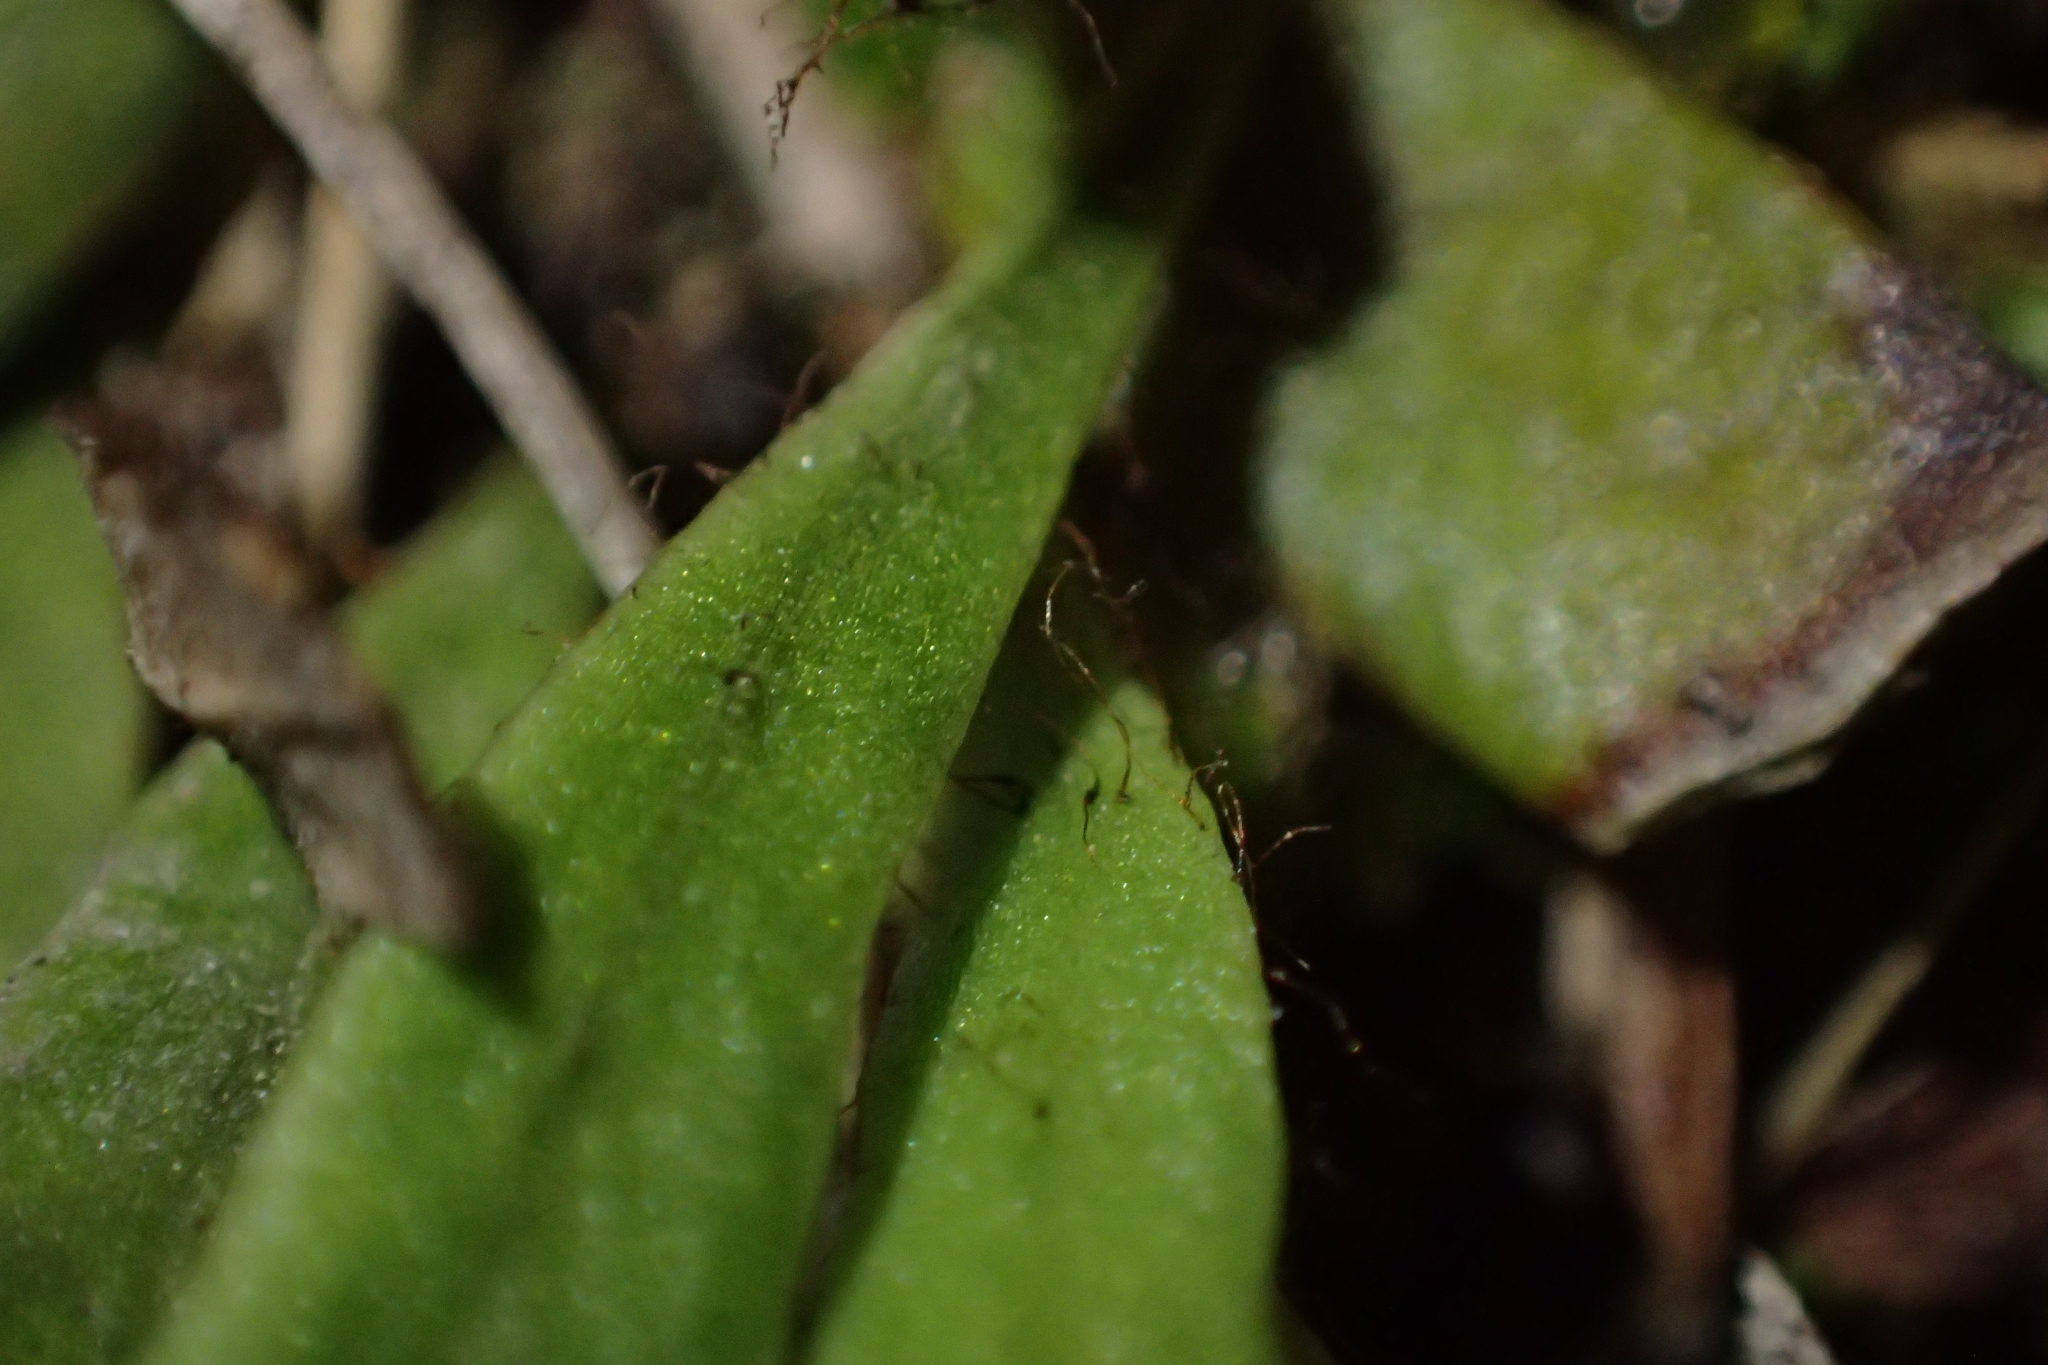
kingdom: Plantae
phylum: Tracheophyta
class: Polypodiopsida
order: Polypodiales
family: Polypodiaceae
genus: Notogrammitis
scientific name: Notogrammitis patagonica
